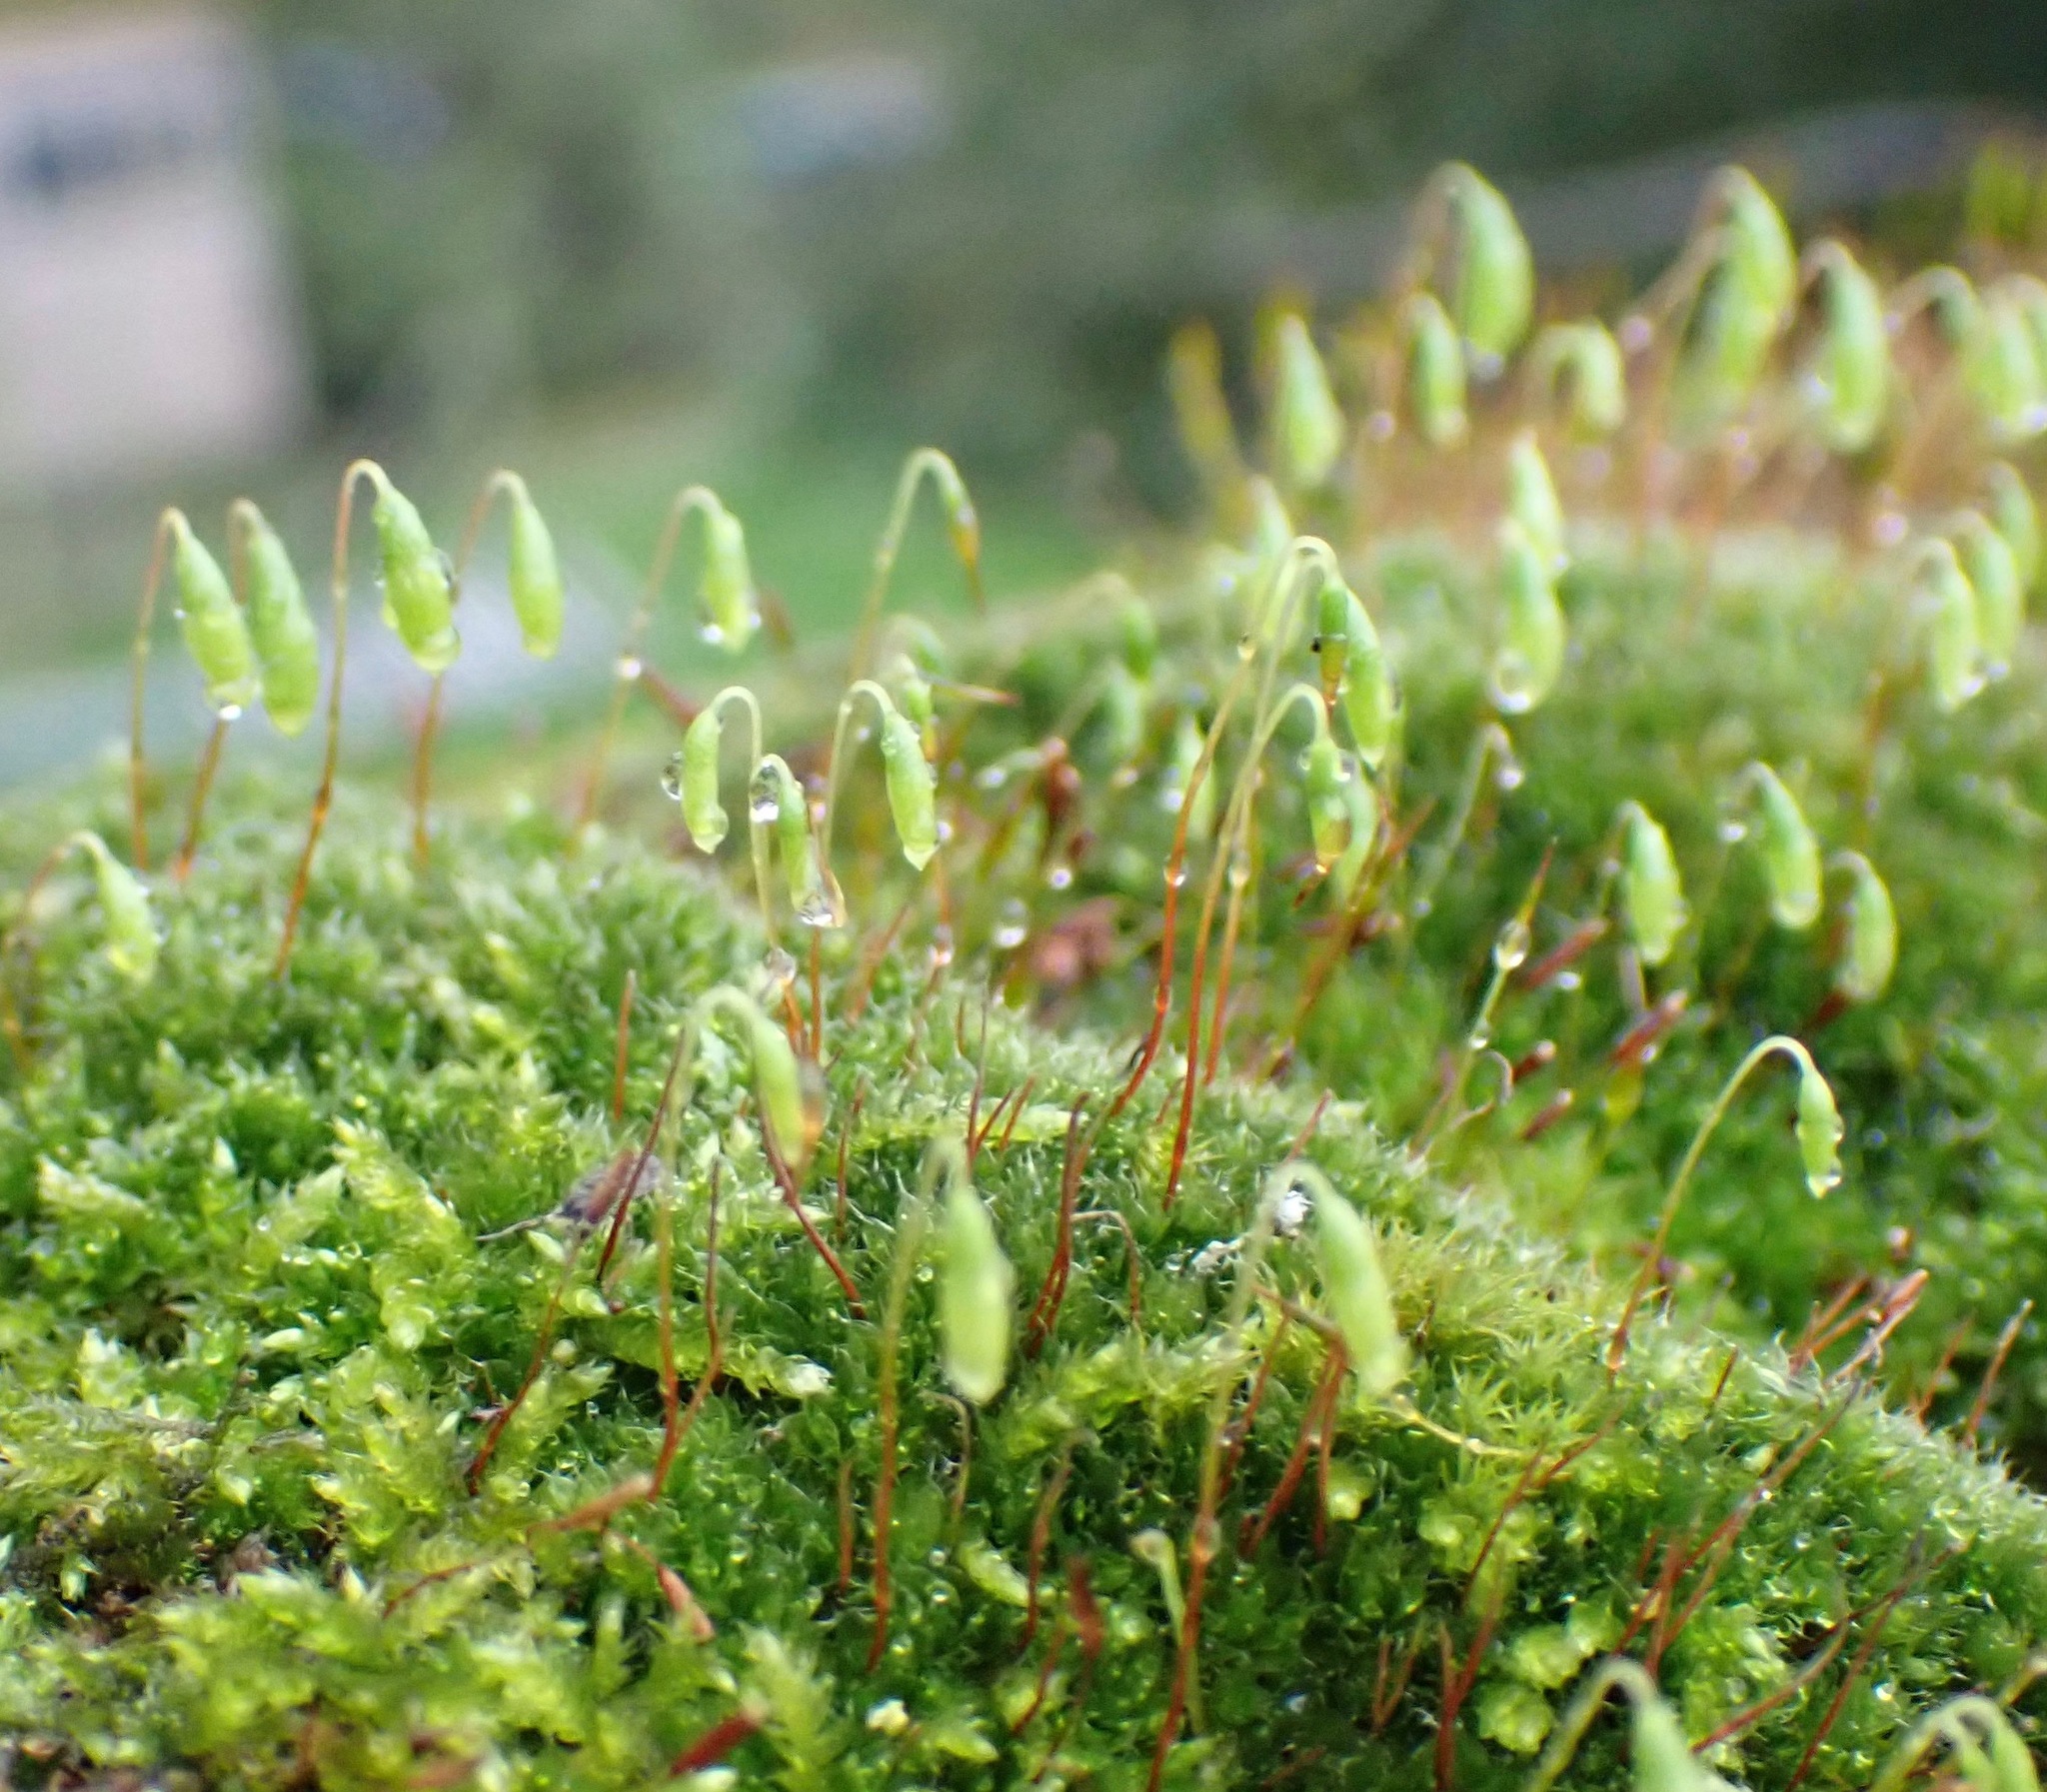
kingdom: Plantae
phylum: Bryophyta
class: Bryopsida
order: Bryales
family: Bryaceae
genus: Rosulabryum
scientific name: Rosulabryum capillare
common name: Capillary thread-moss
